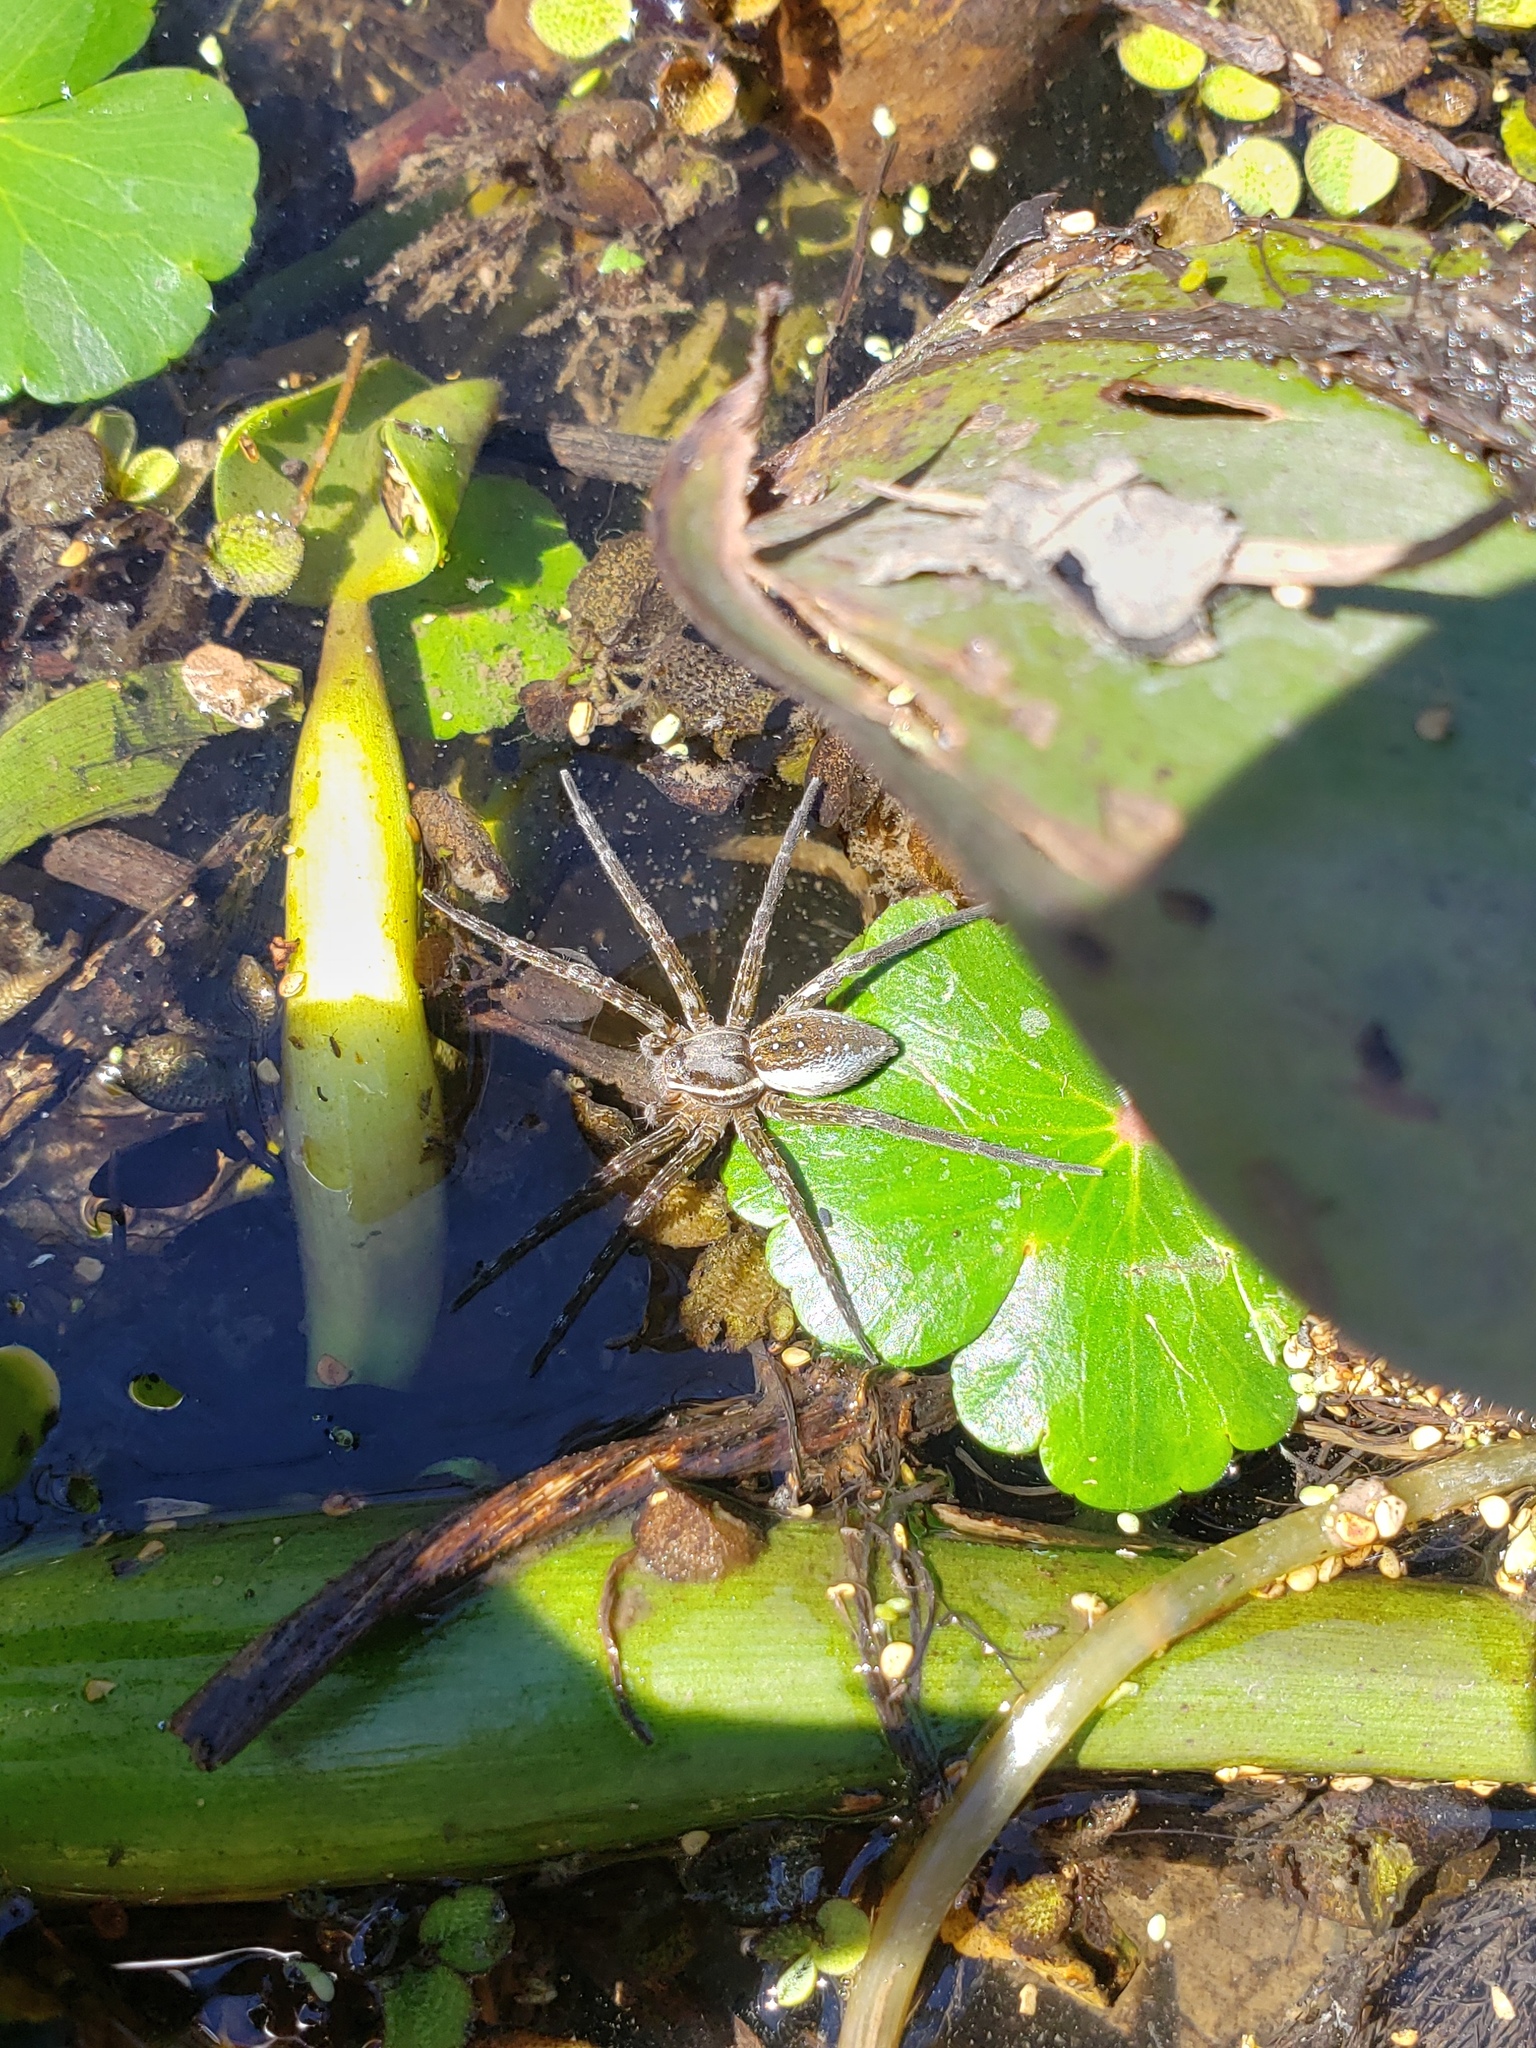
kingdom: Animalia
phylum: Arthropoda
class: Arachnida
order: Araneae
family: Pisauridae
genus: Dolomedes
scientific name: Dolomedes triton
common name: Six-spotted fishing spider
